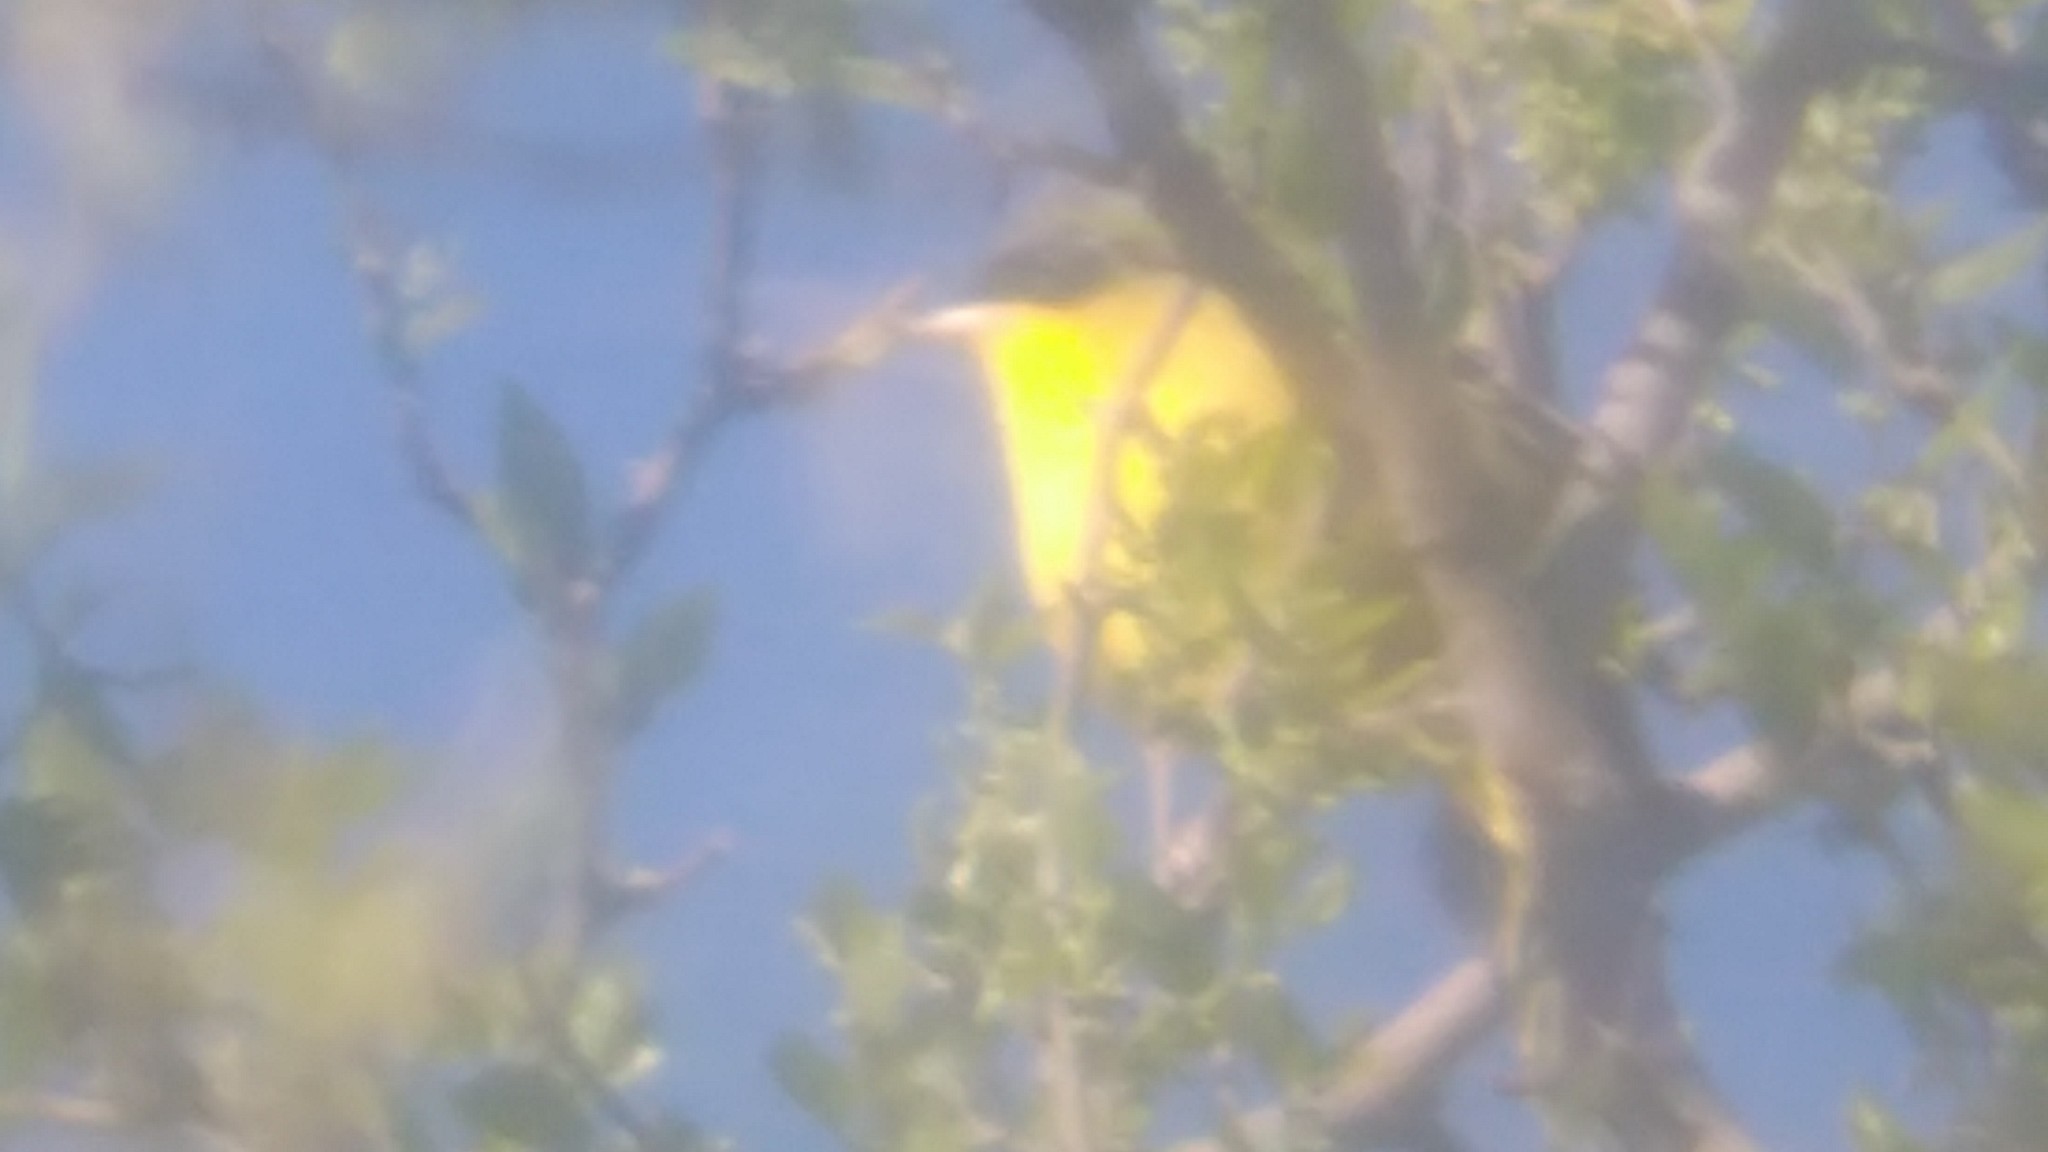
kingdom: Animalia
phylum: Chordata
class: Aves
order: Passeriformes
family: Parulidae
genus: Geothlypis
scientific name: Geothlypis velata
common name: Southern yellowthroat
